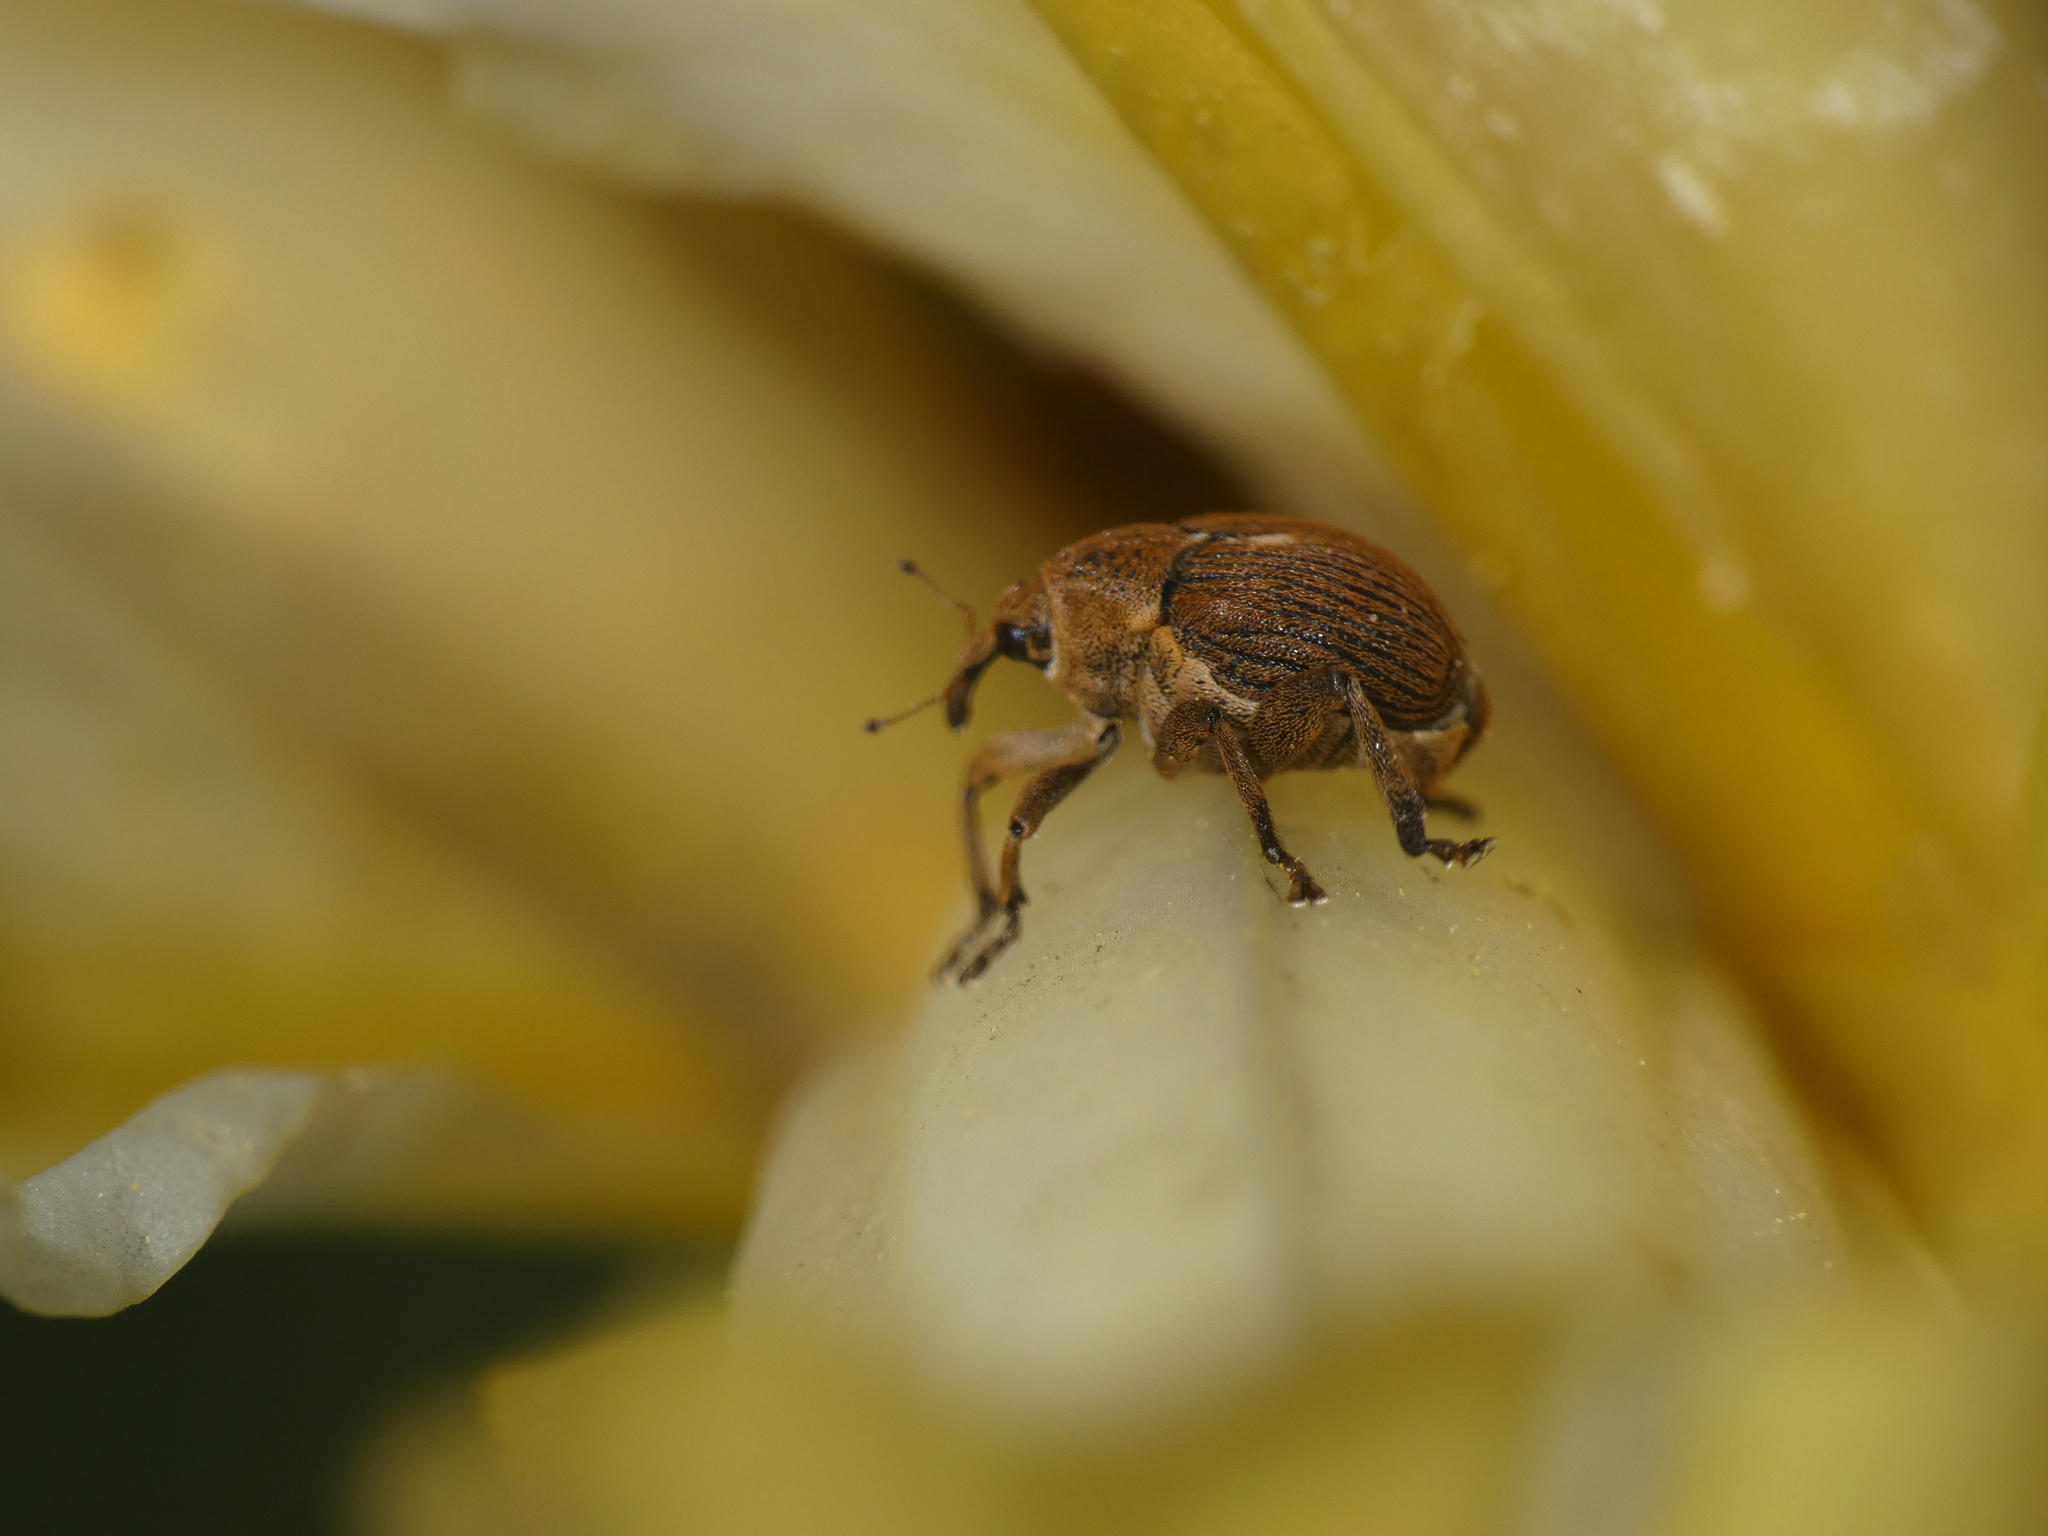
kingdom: Animalia
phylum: Arthropoda
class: Insecta
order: Coleoptera
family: Curculionidae
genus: Mononychus
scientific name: Mononychus punctumalbum
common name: Iris weevil
